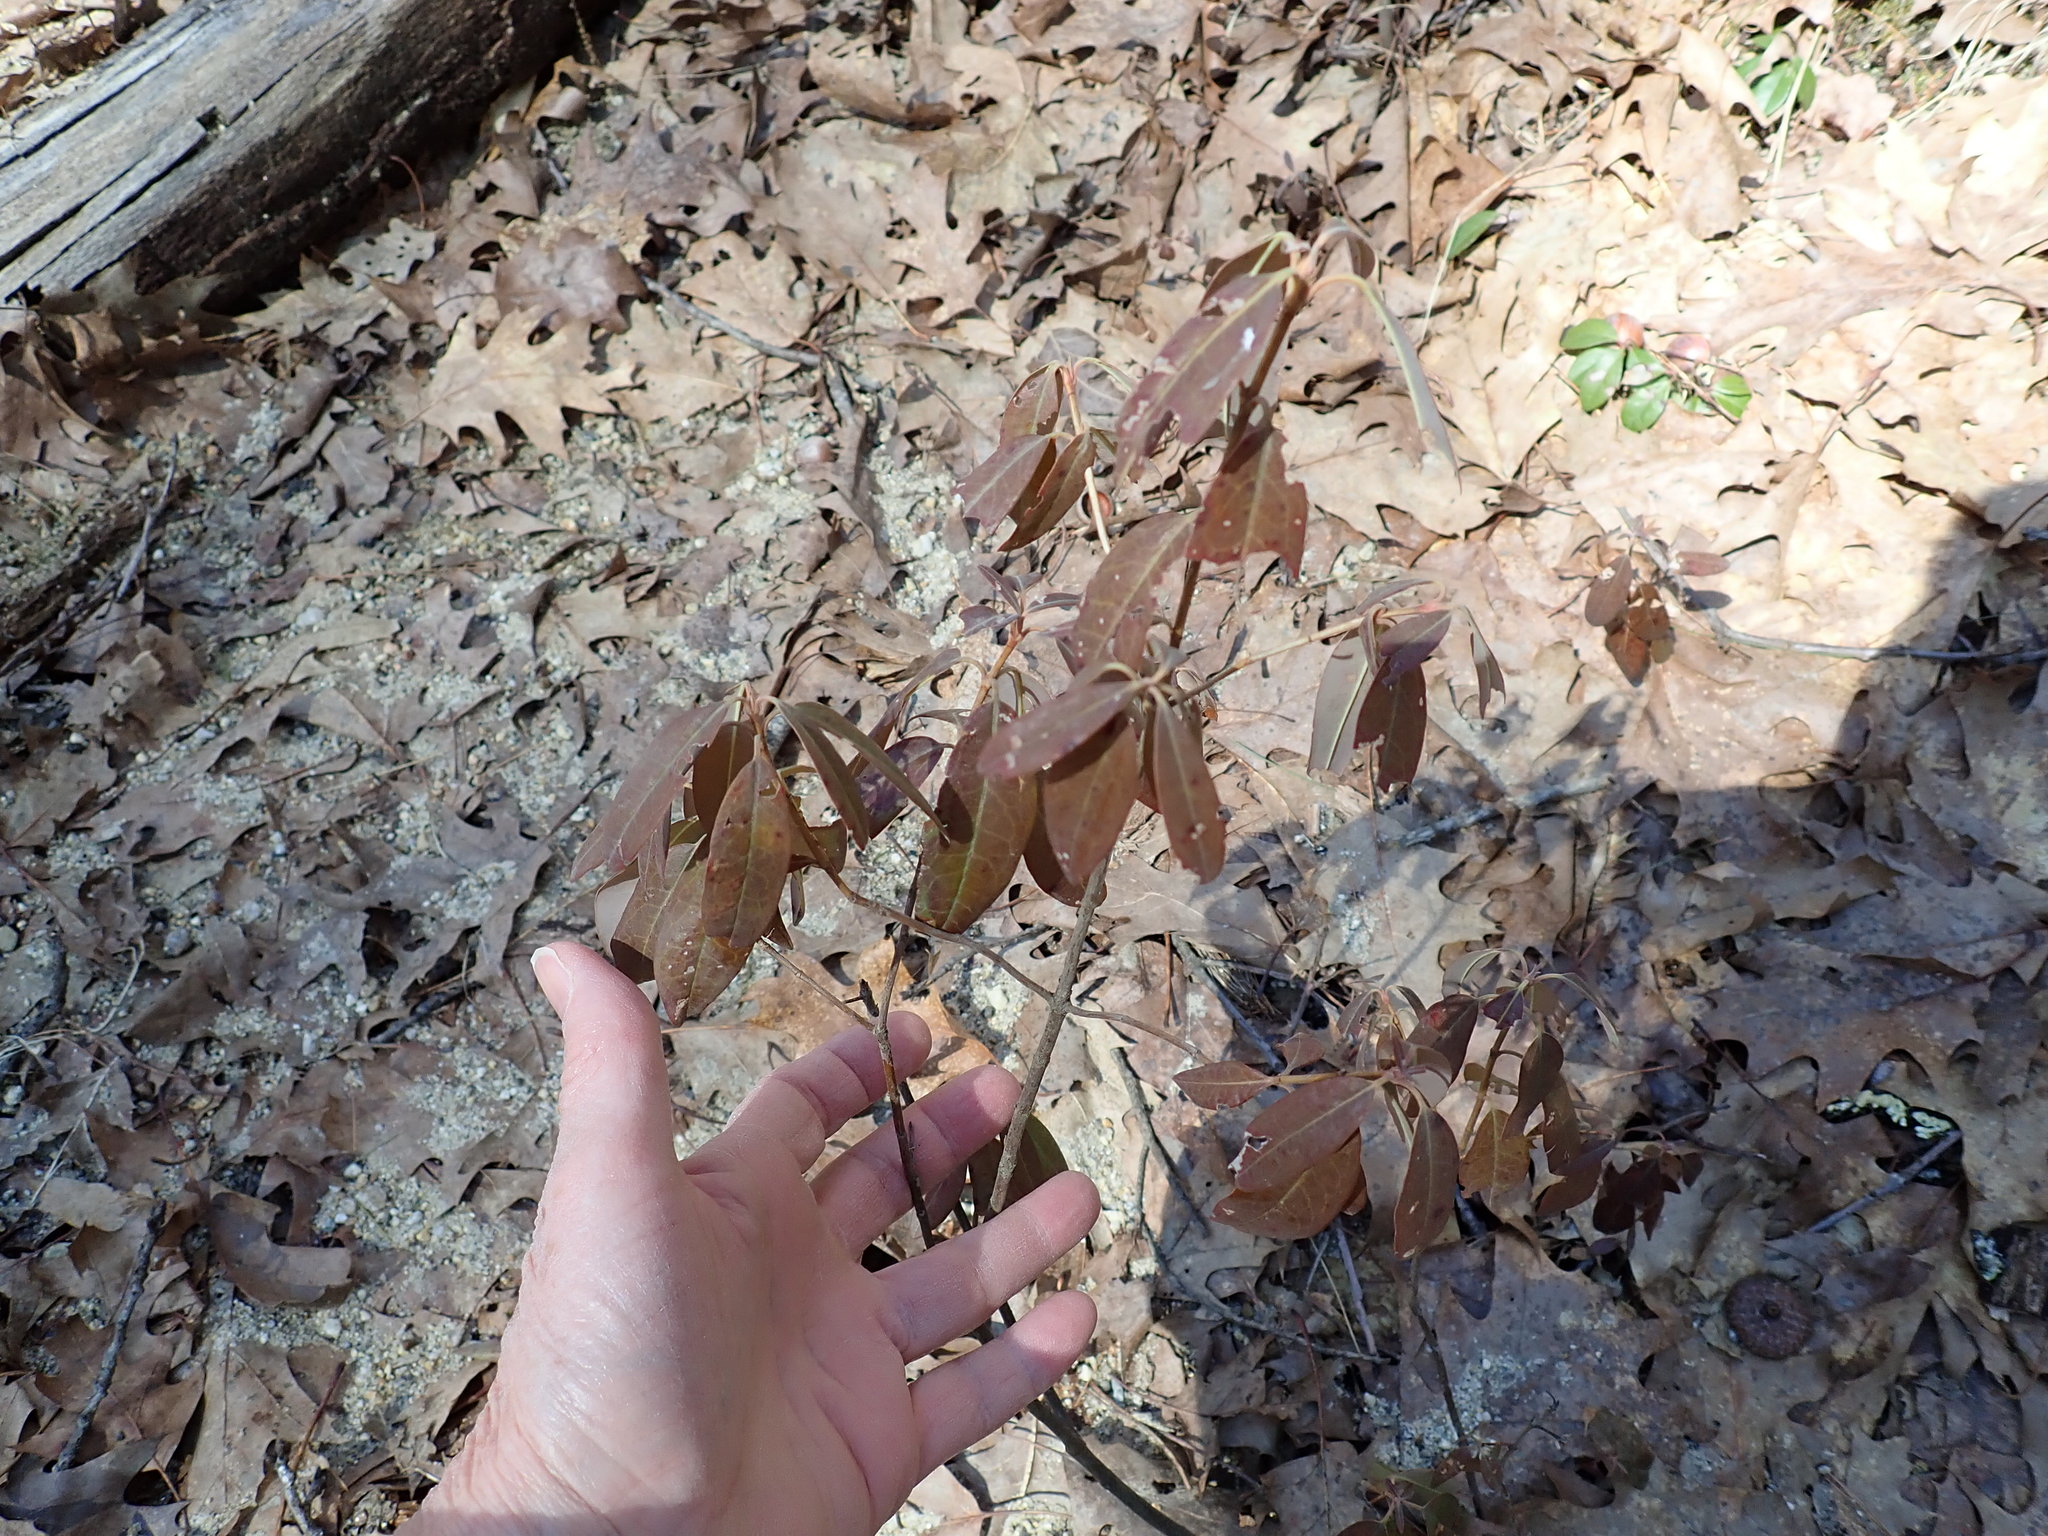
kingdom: Plantae
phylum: Tracheophyta
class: Magnoliopsida
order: Ericales
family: Ericaceae
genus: Kalmia
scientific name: Kalmia angustifolia
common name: Sheep-laurel
